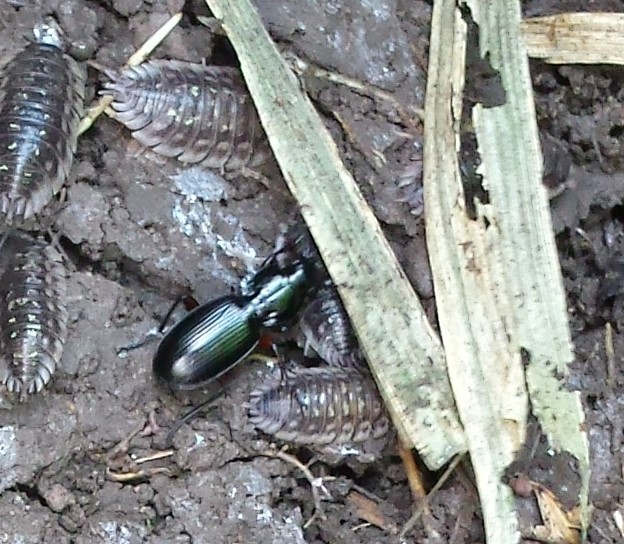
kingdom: Animalia
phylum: Arthropoda
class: Insecta
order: Coleoptera
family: Carabidae
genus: Pterostichus
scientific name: Pterostichus madidus
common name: Black clock
